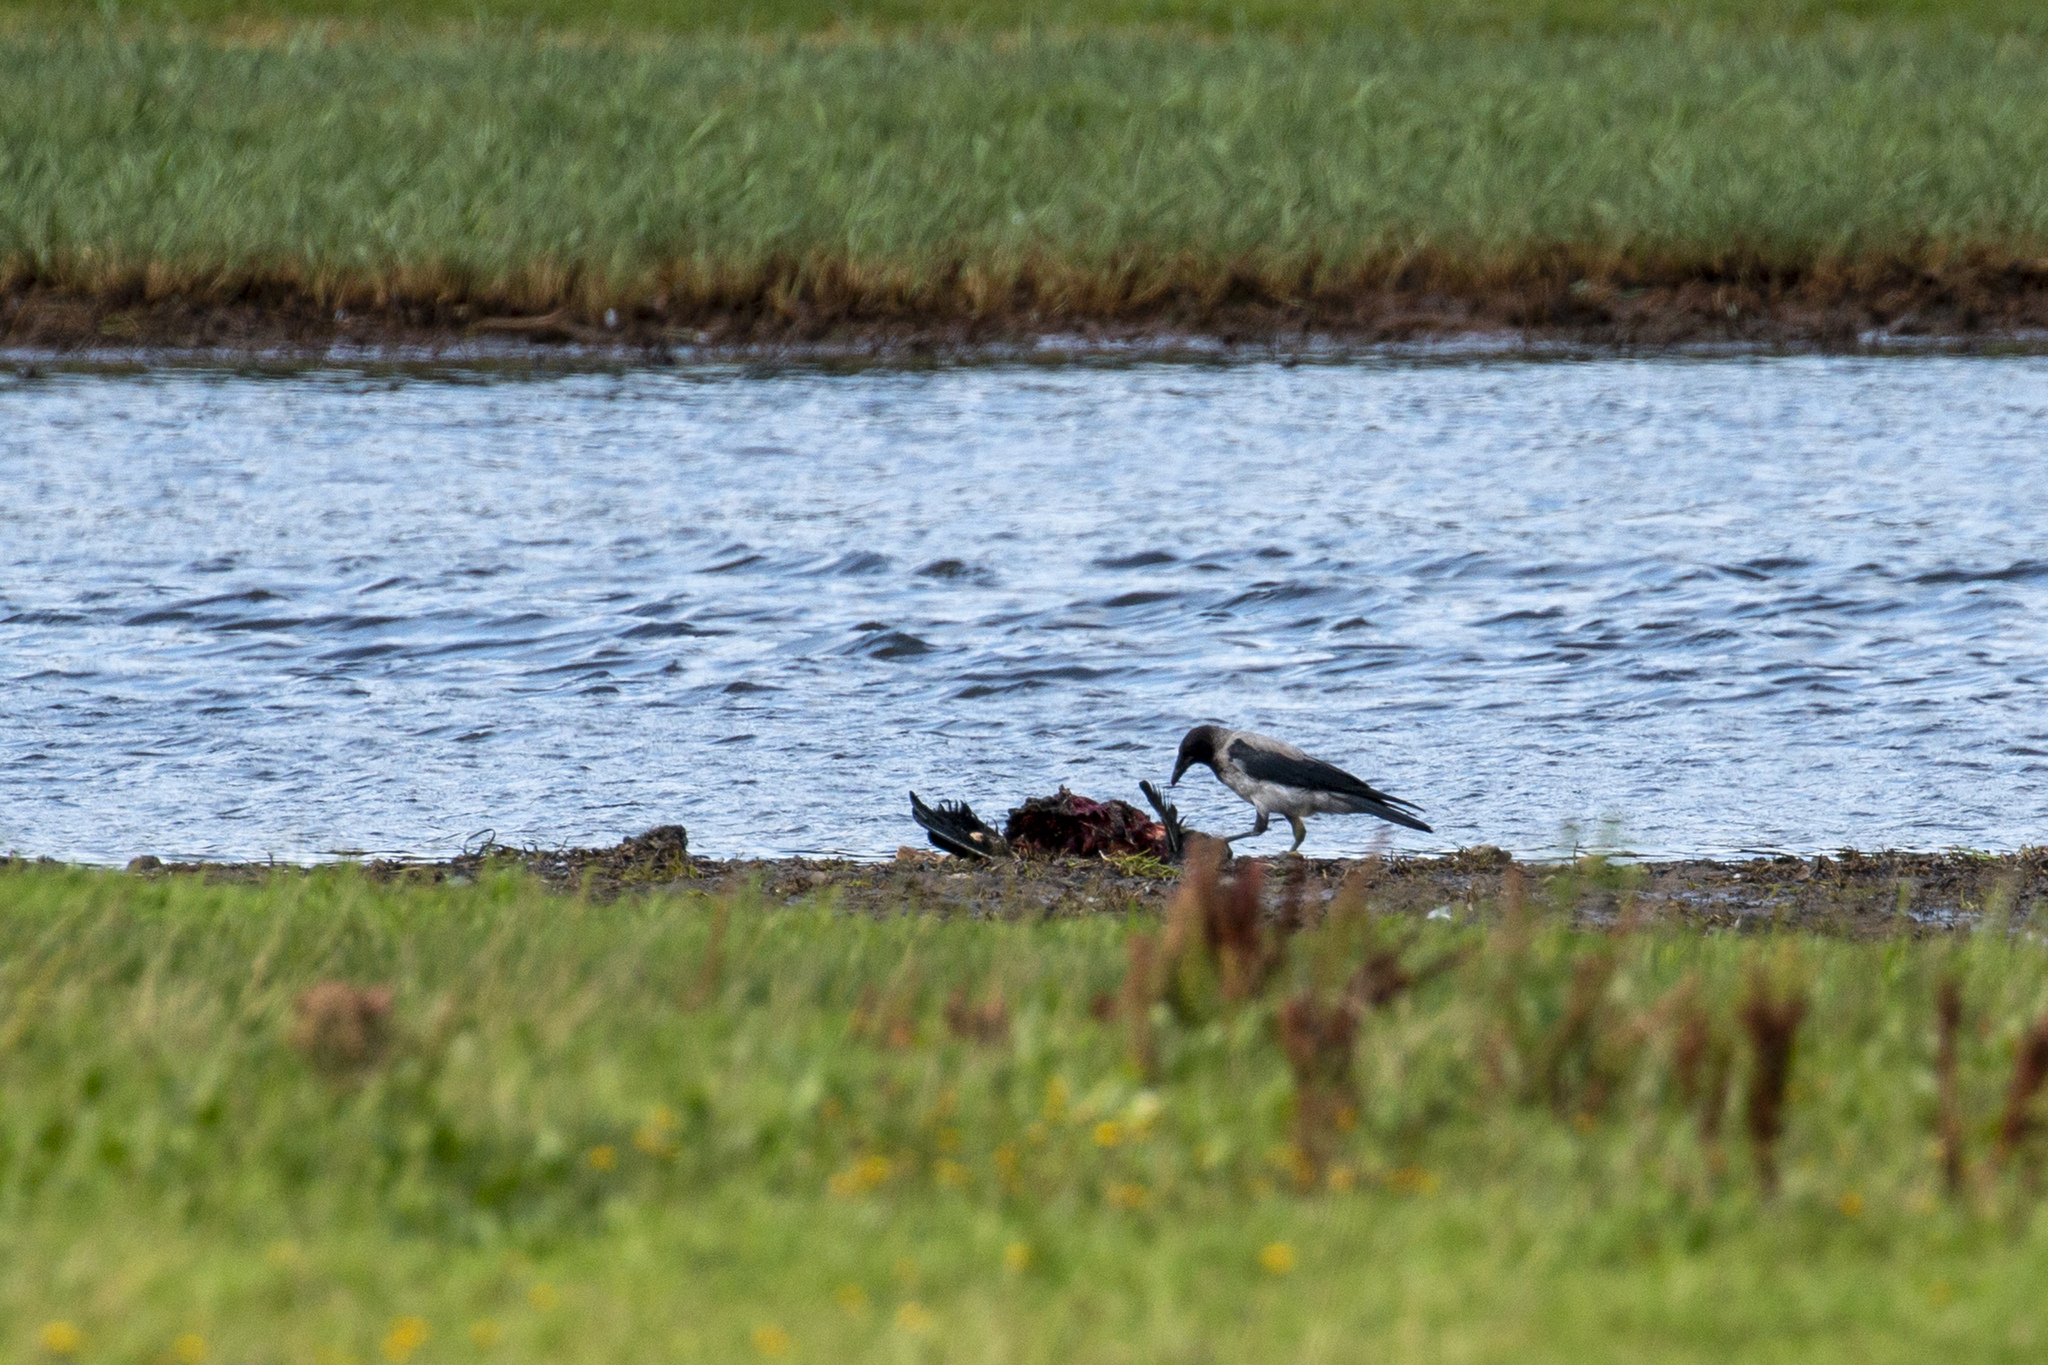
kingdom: Animalia
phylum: Chordata
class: Aves
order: Passeriformes
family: Corvidae
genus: Corvus
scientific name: Corvus cornix
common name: Hooded crow
